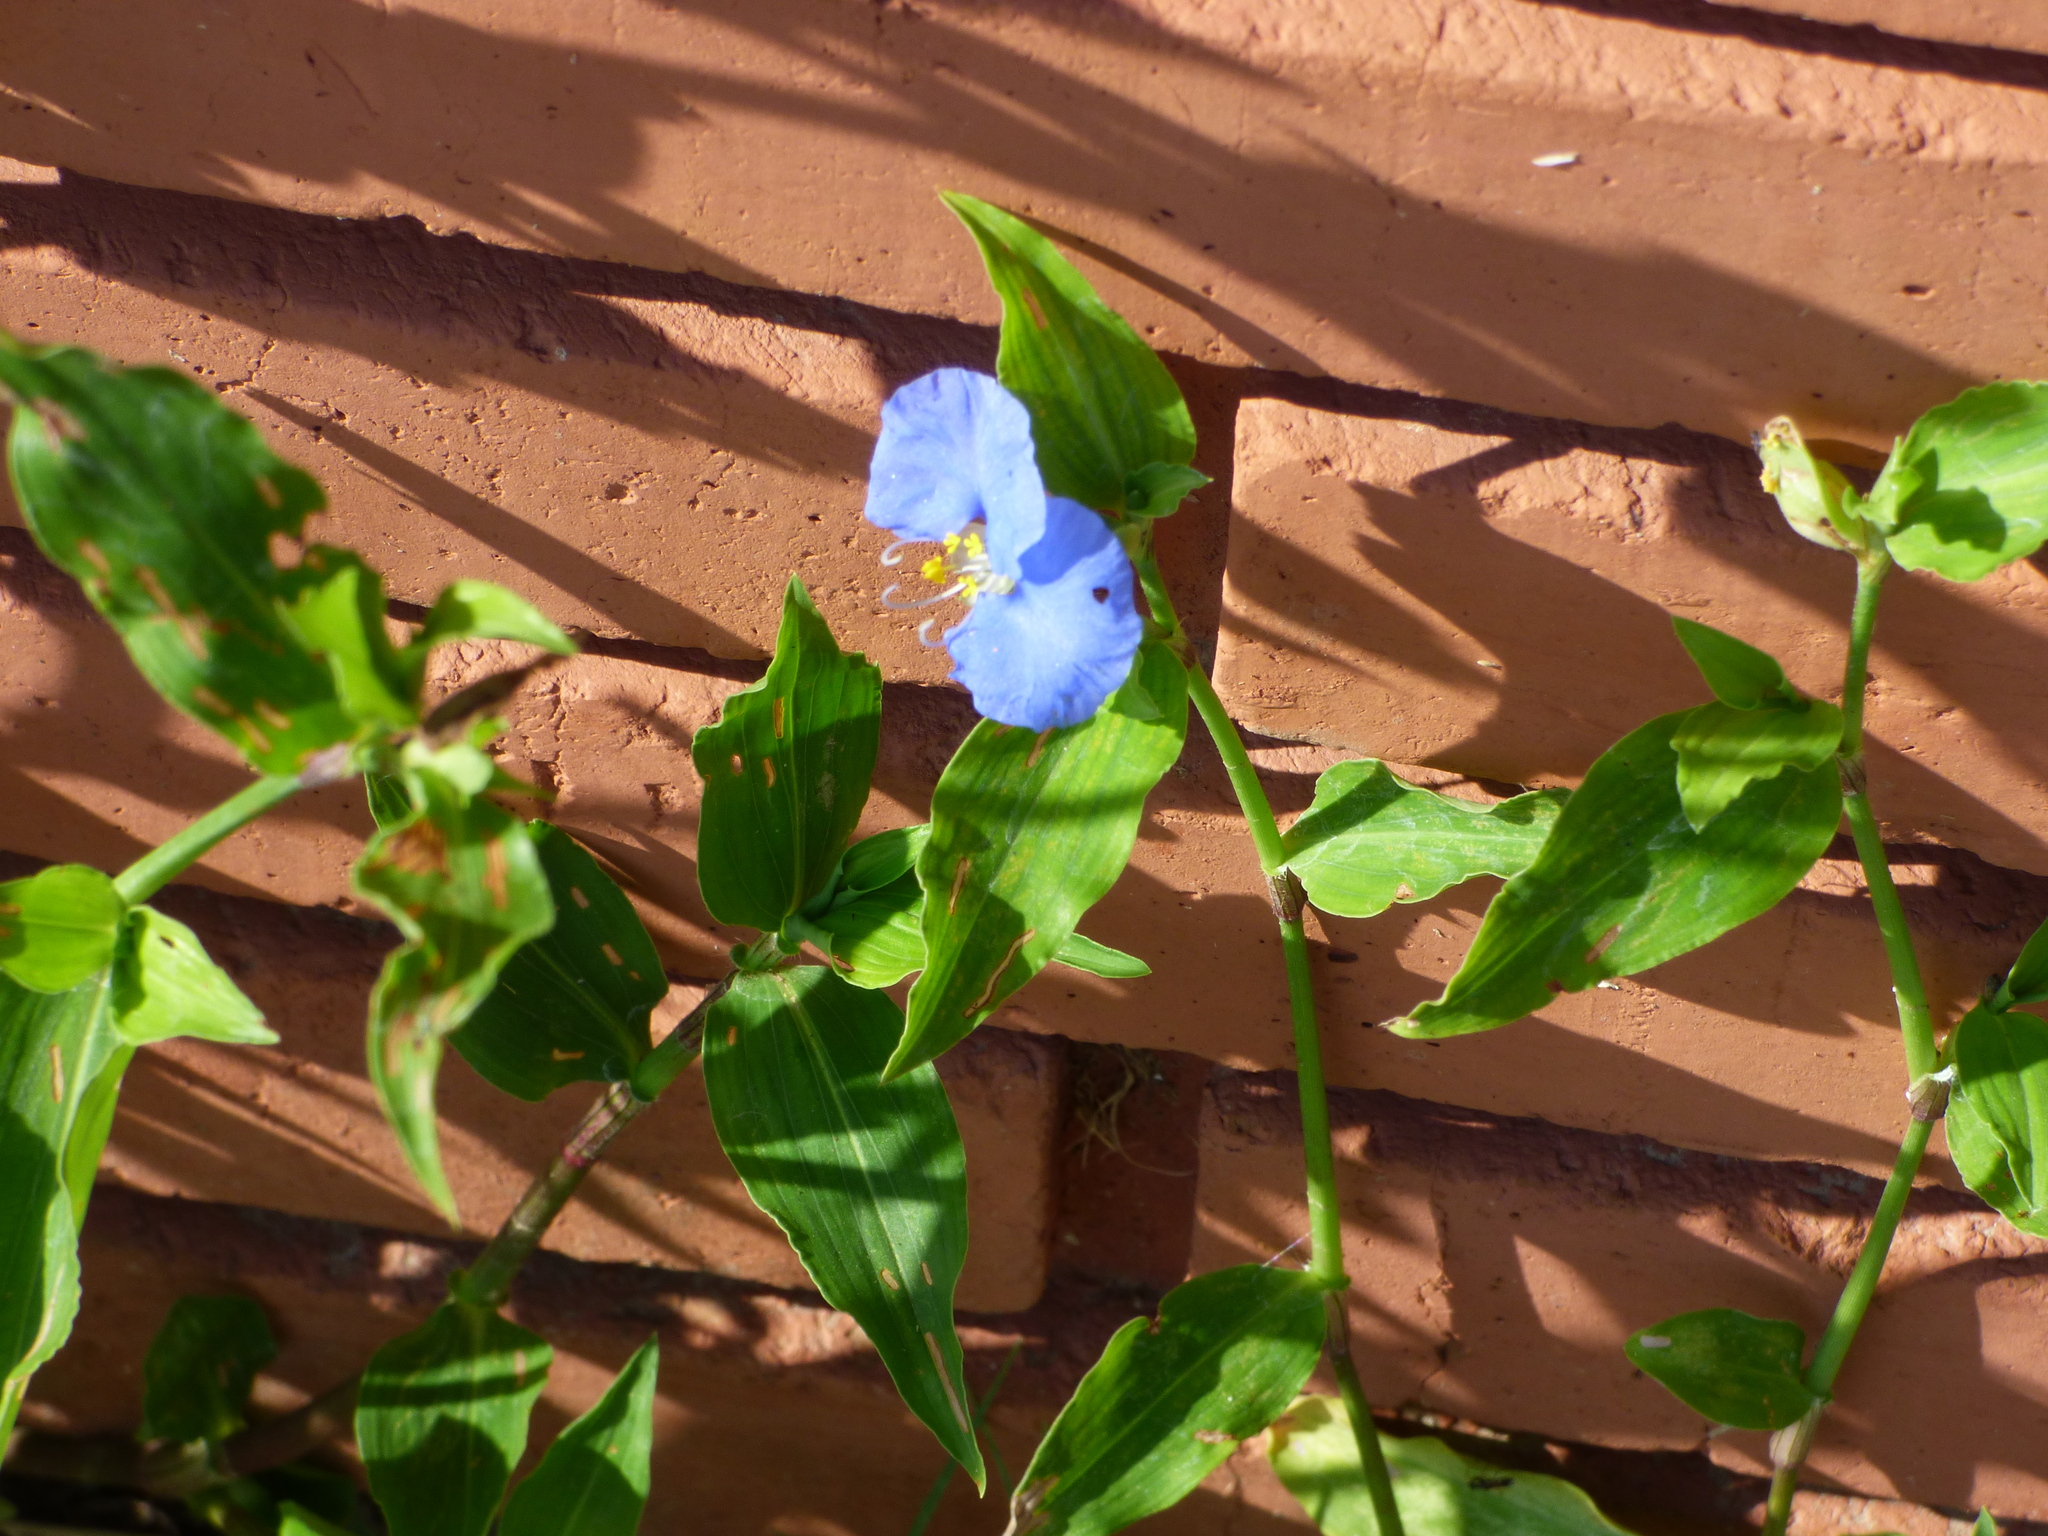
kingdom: Plantae
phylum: Tracheophyta
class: Liliopsida
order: Commelinales
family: Commelinaceae
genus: Commelina
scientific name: Commelina erecta
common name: Blousel blommetjie
